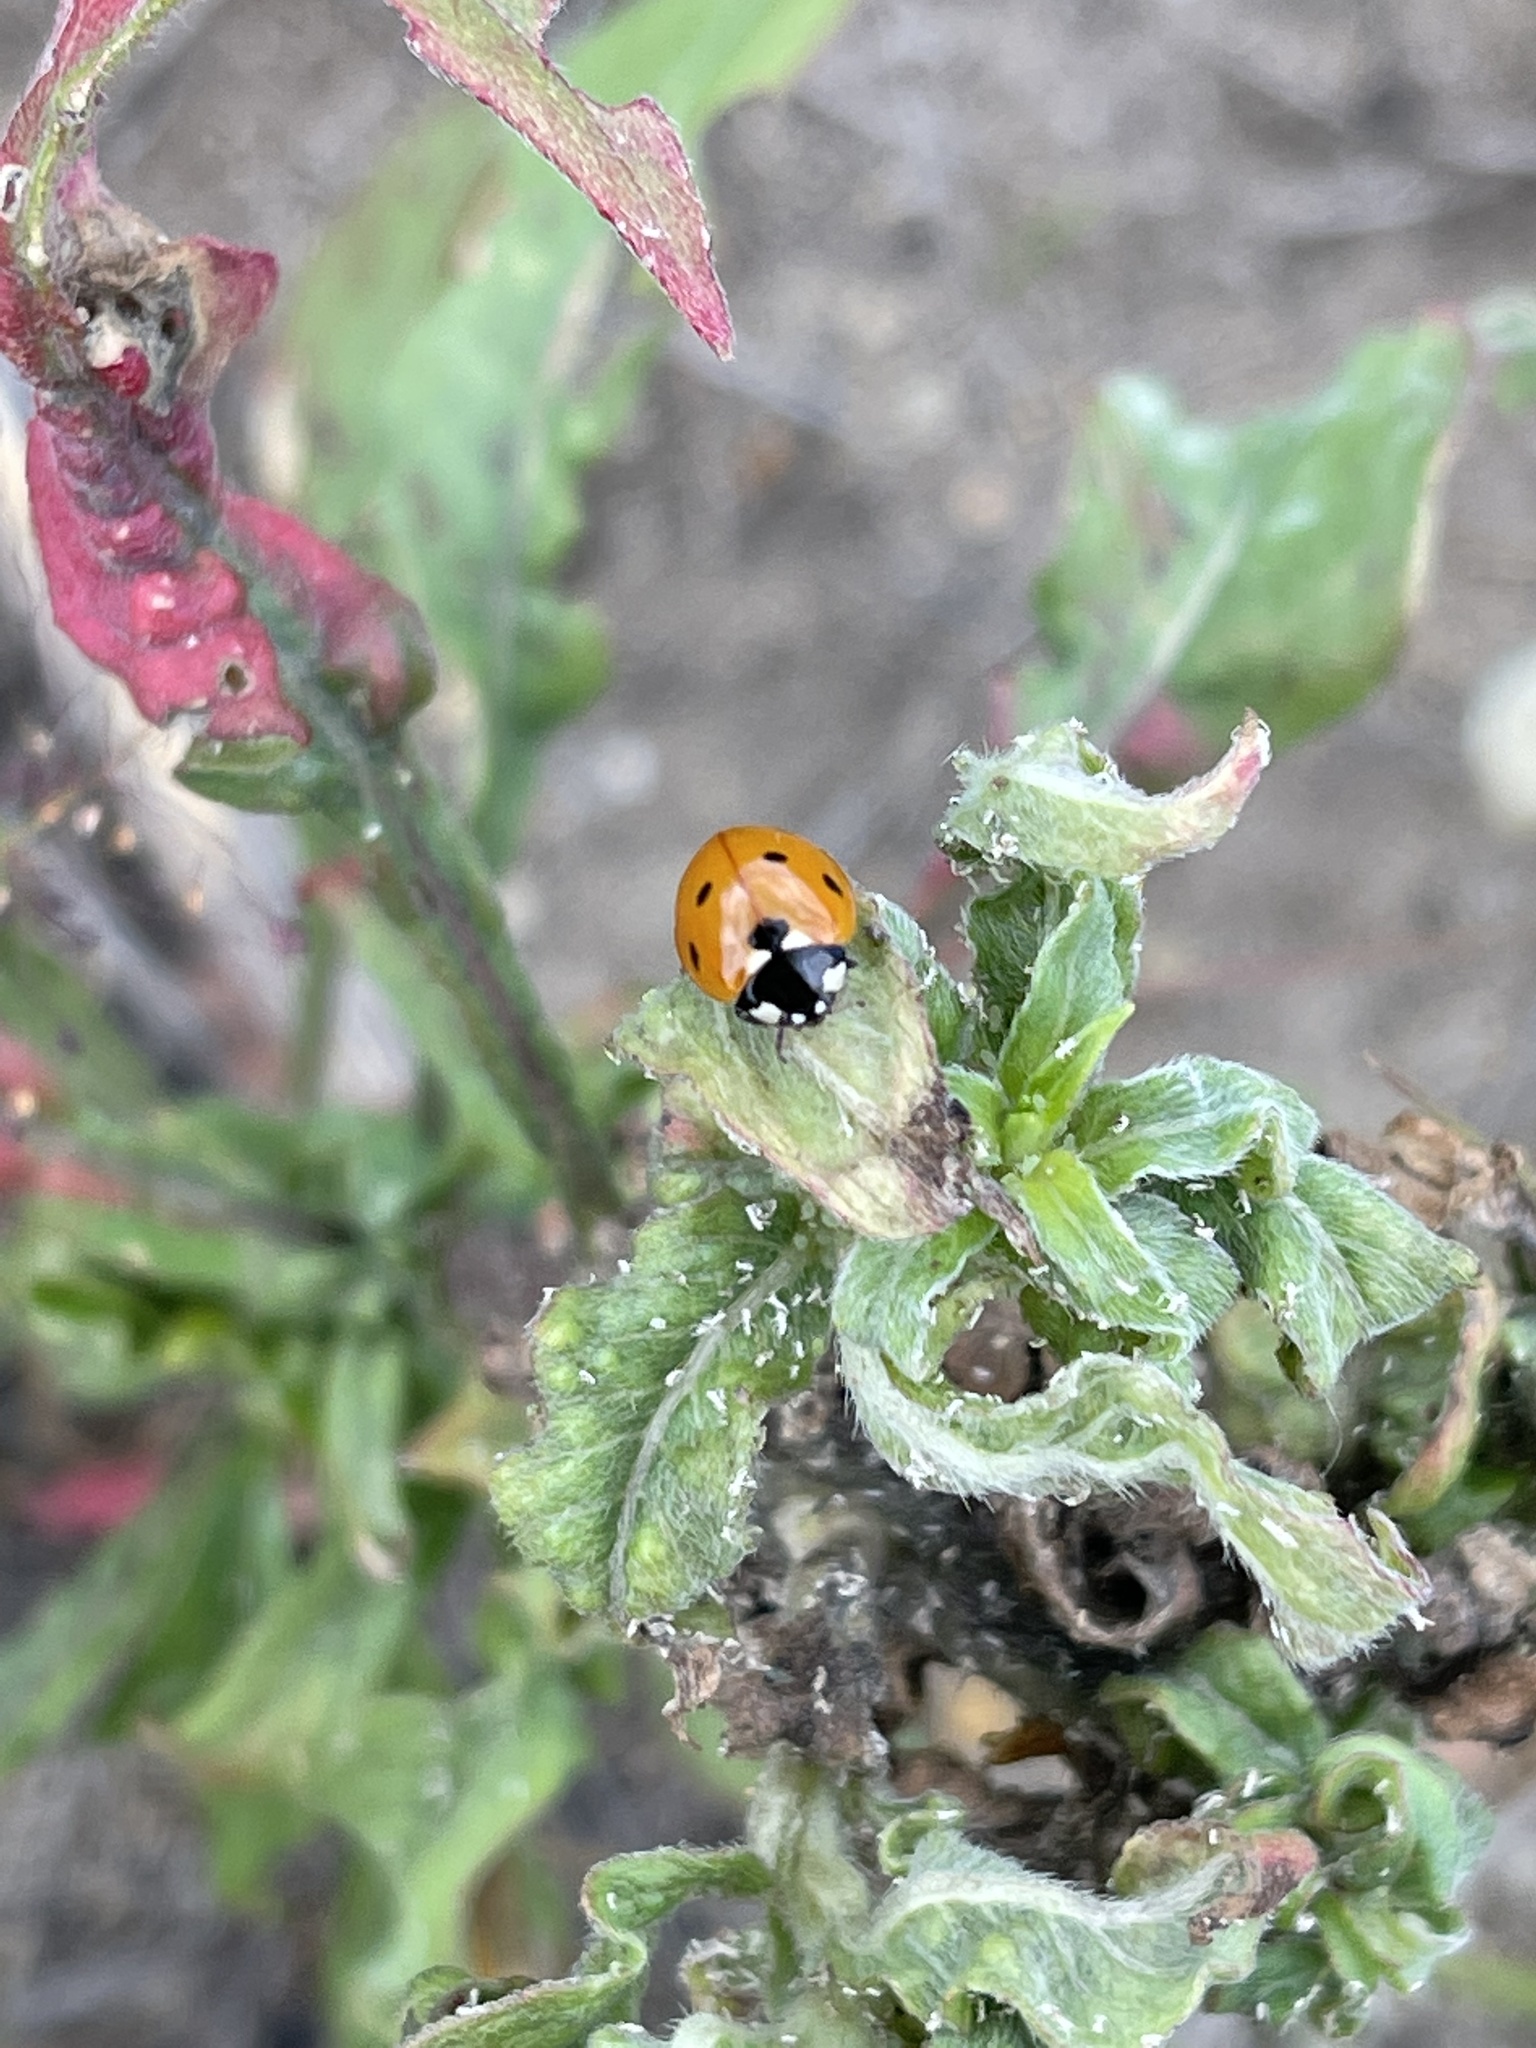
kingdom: Animalia
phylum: Arthropoda
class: Insecta
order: Coleoptera
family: Coccinellidae
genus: Coccinella
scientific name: Coccinella septempunctata
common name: Sevenspotted lady beetle
